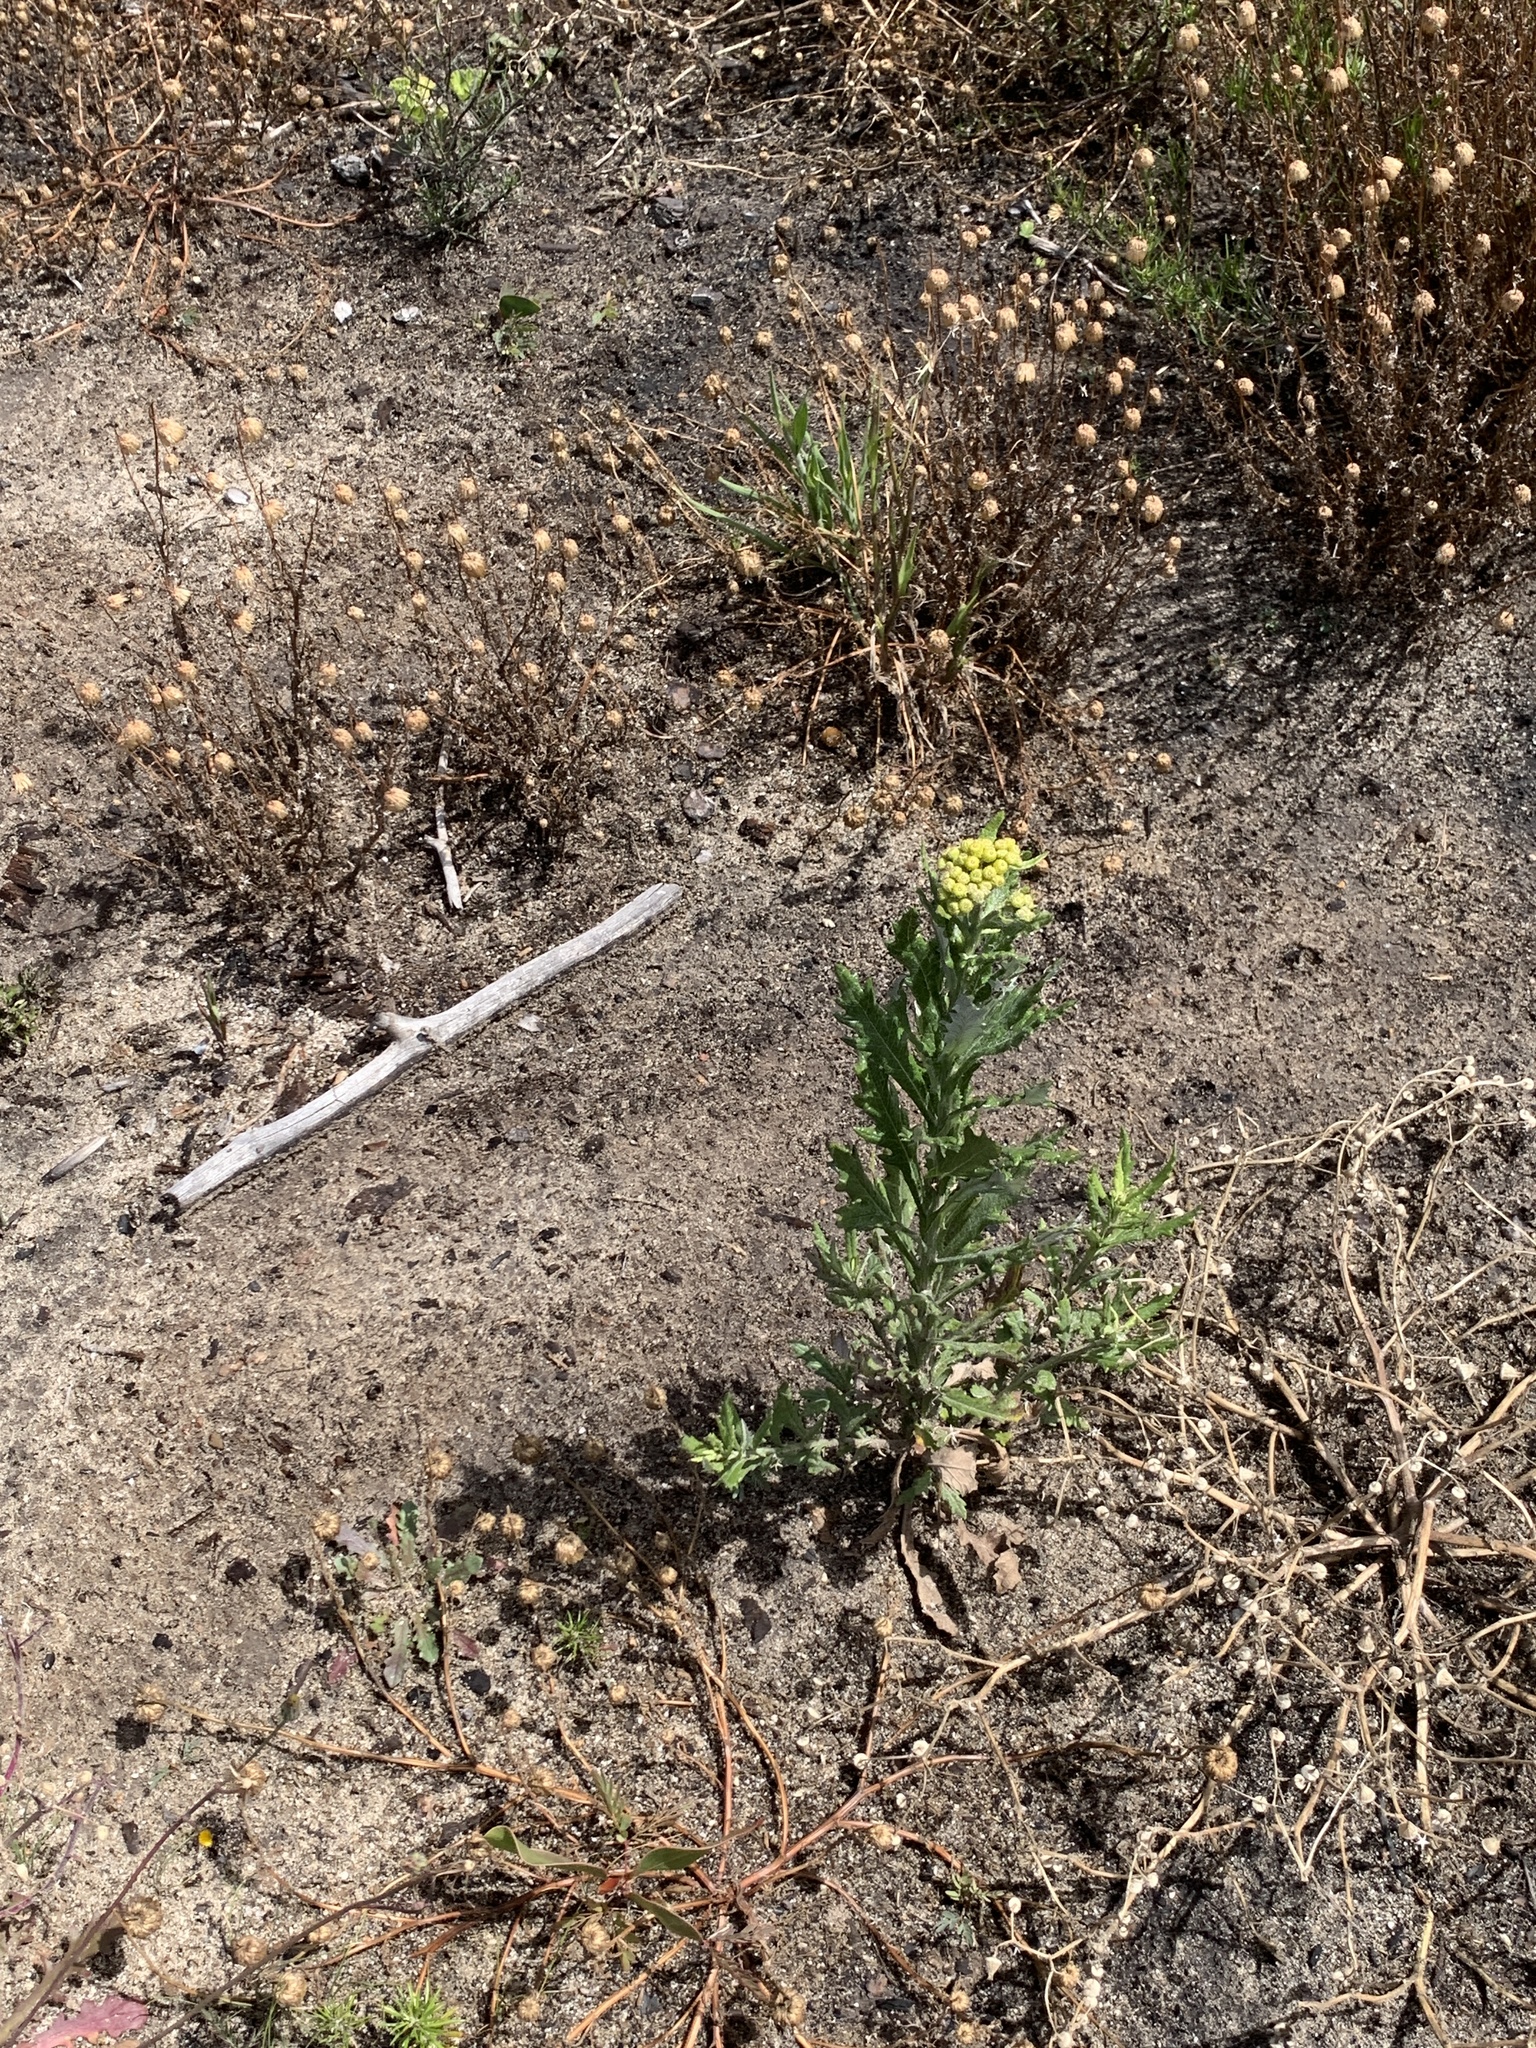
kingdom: Plantae
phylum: Tracheophyta
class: Magnoliopsida
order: Asterales
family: Asteraceae
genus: Senecio
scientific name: Senecio pterophorus
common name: Shoddy ragwort
